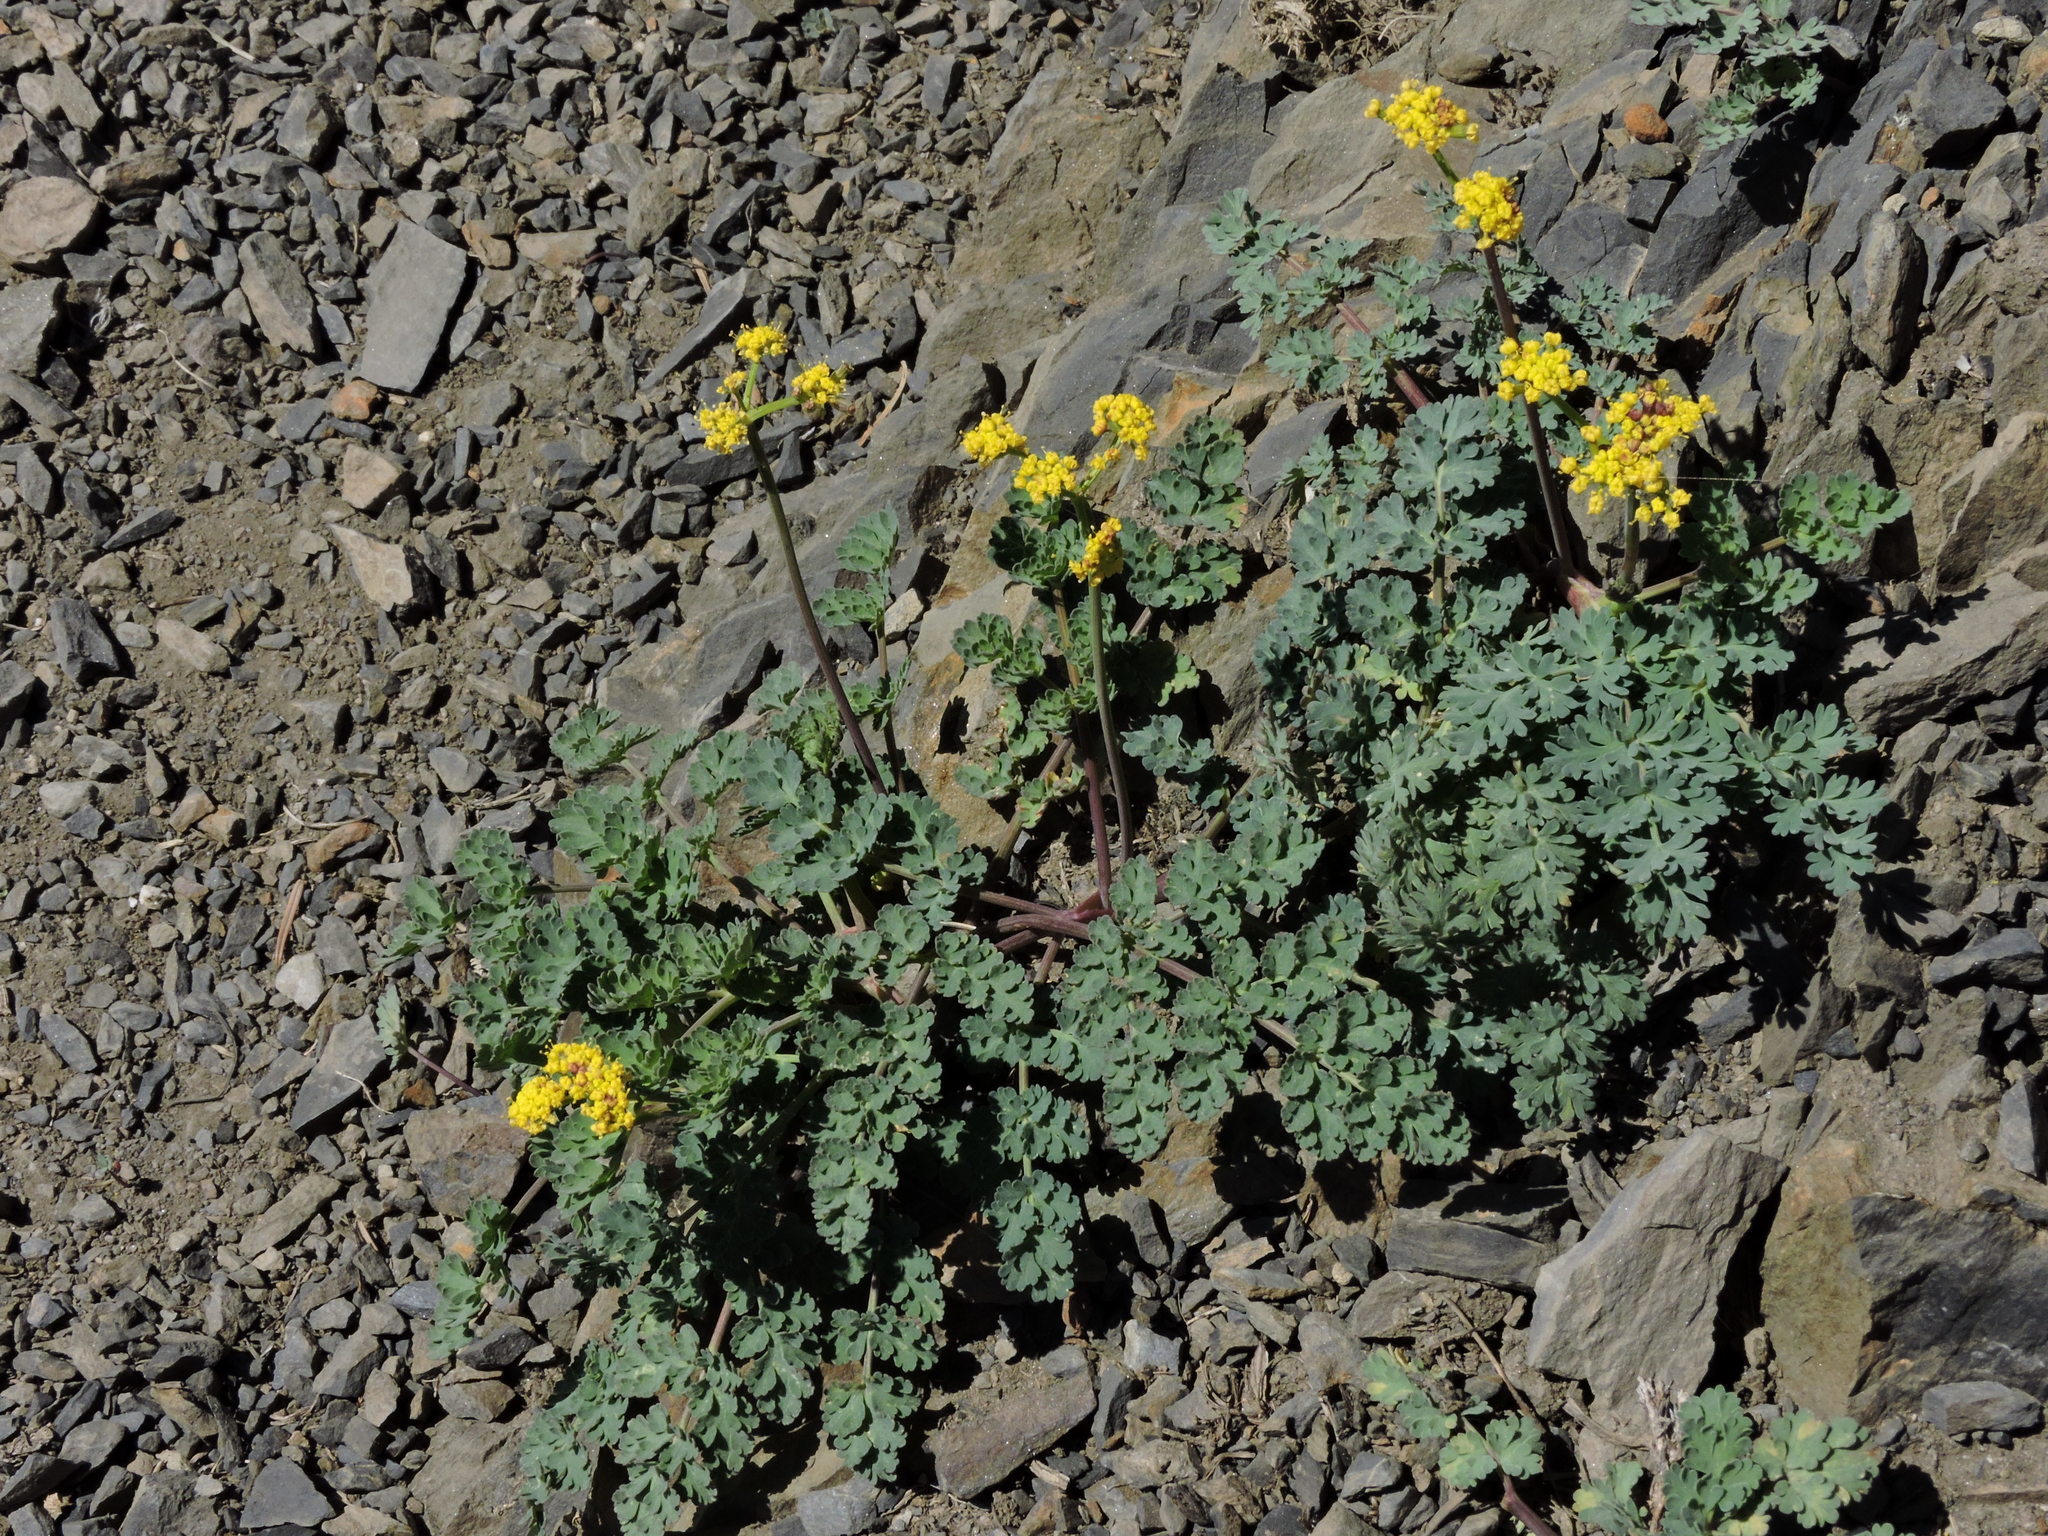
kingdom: Plantae
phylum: Tracheophyta
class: Magnoliopsida
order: Apiales
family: Apiaceae
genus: Lomatium
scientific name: Lomatium martindalei
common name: Cascade desert-parsley
